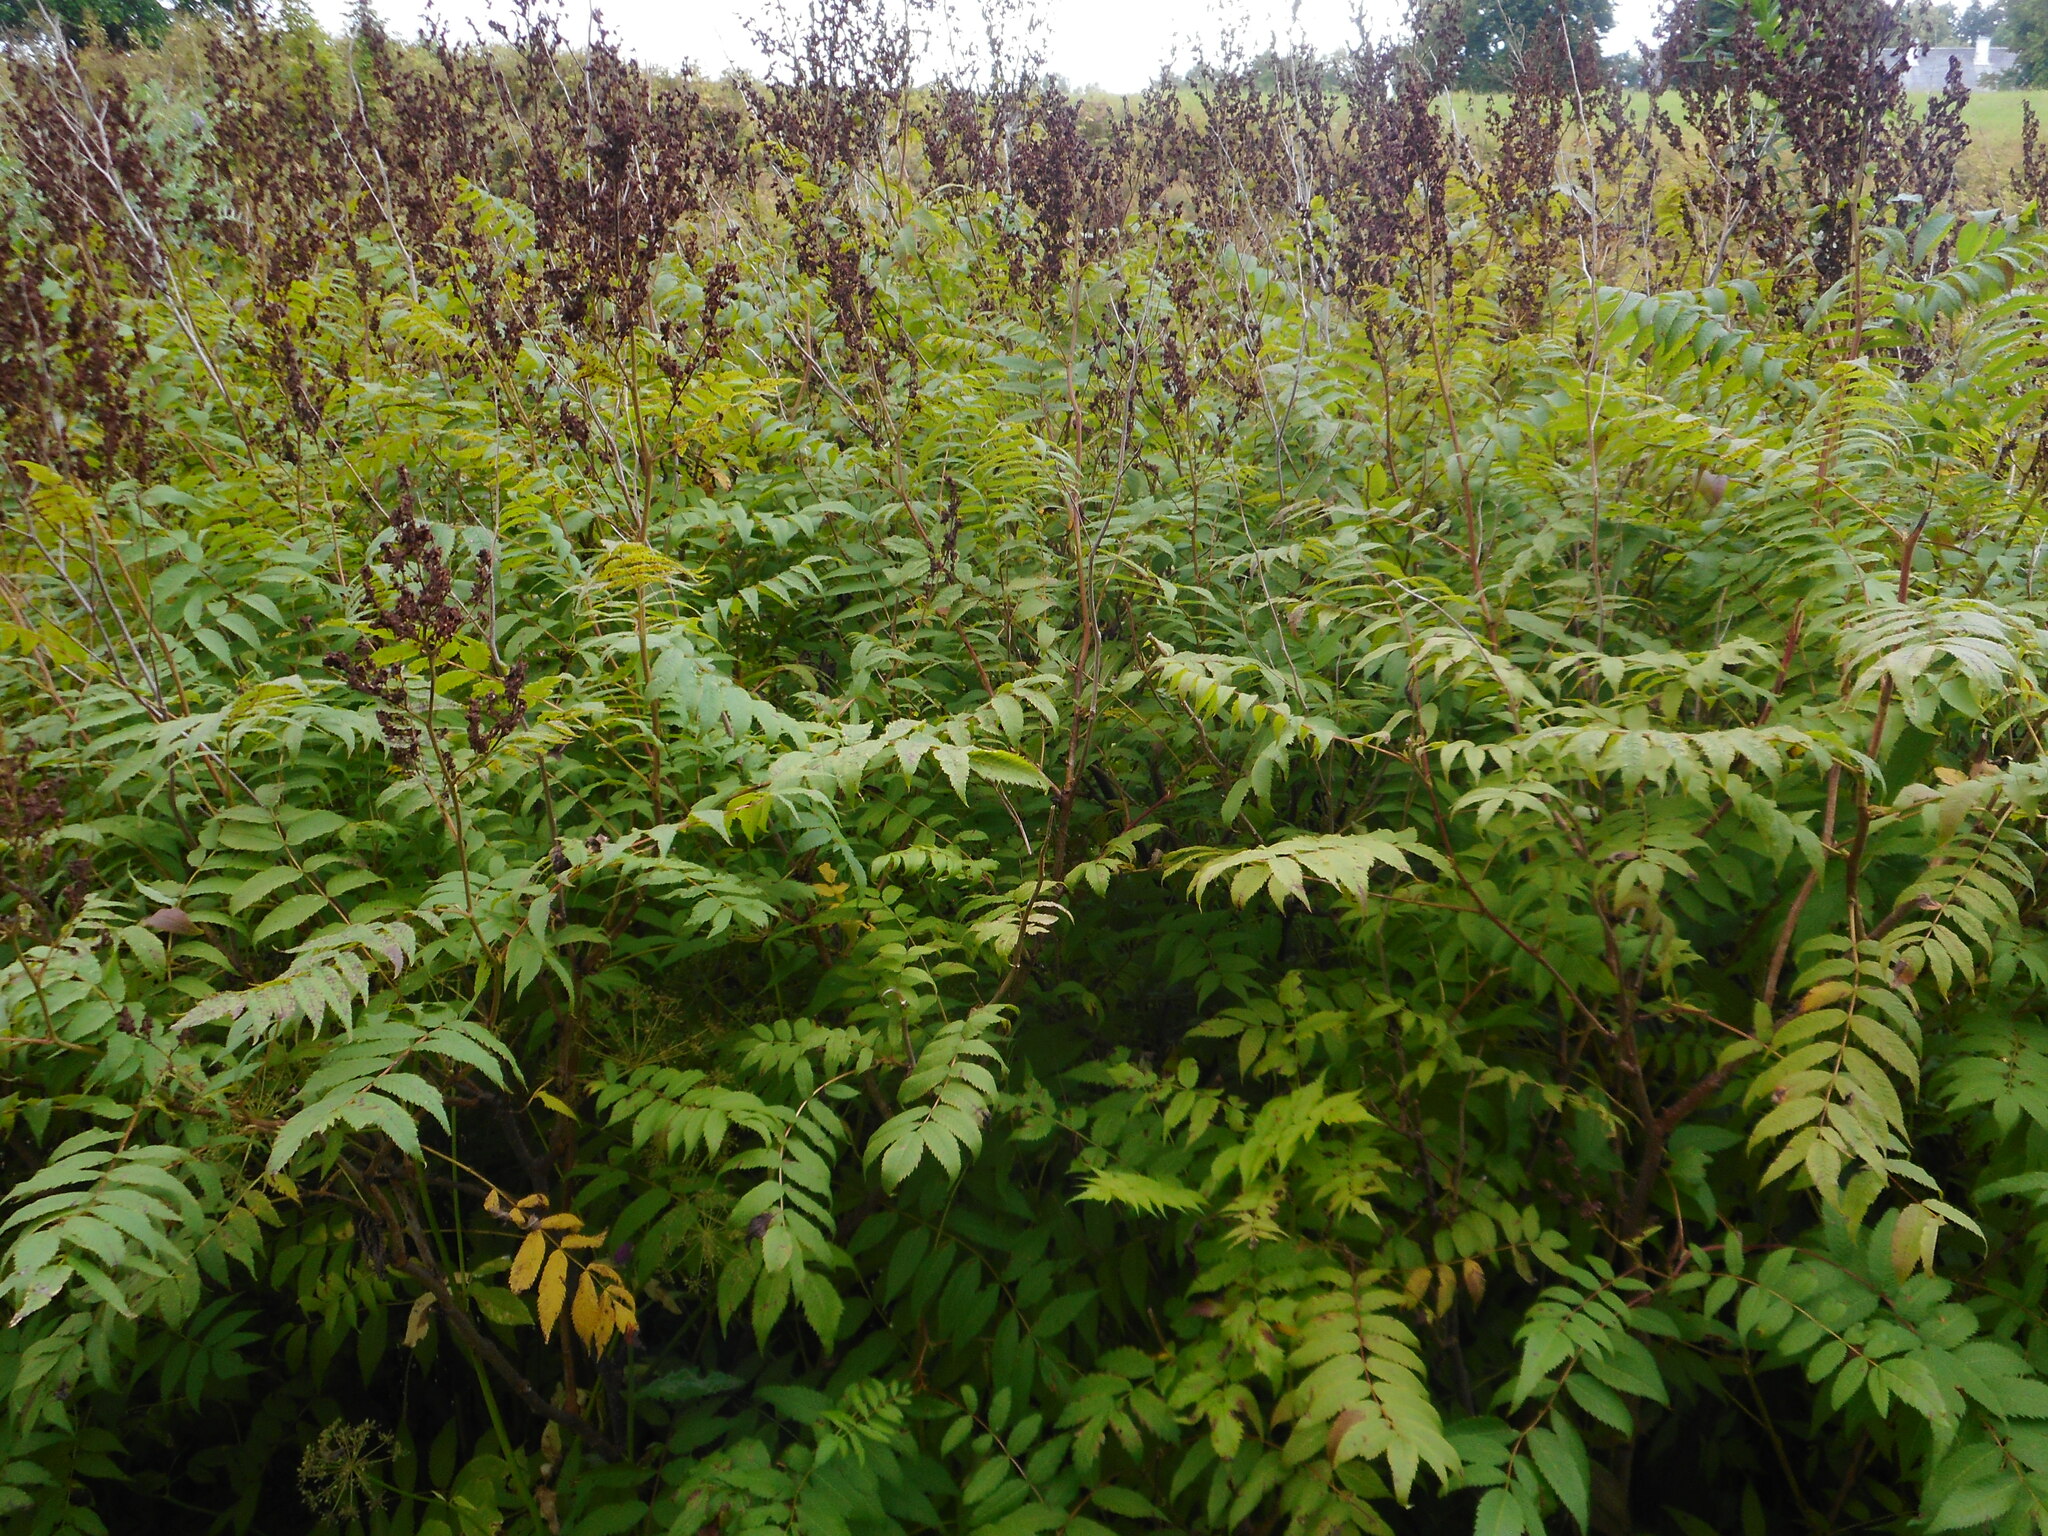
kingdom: Plantae
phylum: Tracheophyta
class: Magnoliopsida
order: Rosales
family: Rosaceae
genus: Sorbaria
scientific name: Sorbaria sorbifolia
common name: False spiraea
